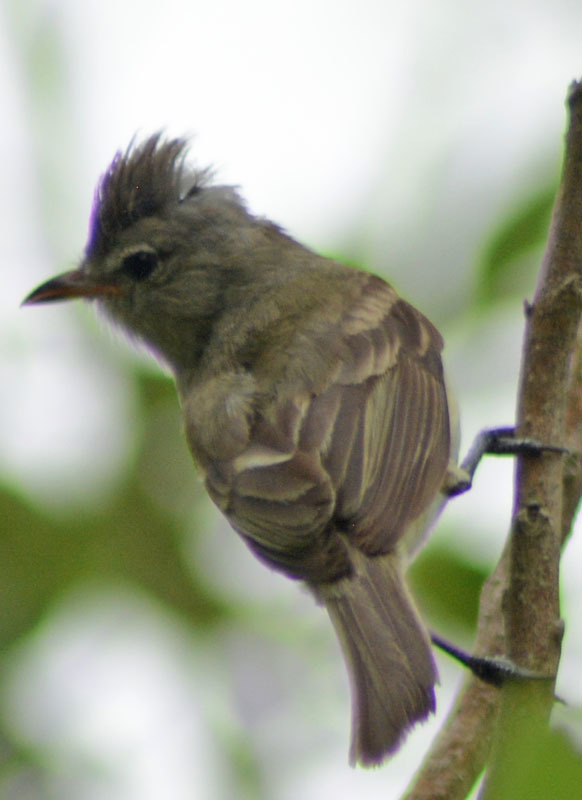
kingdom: Animalia
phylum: Chordata
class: Aves
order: Passeriformes
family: Tyrannidae
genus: Camptostoma
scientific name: Camptostoma imberbe
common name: Northern beardless-tyrannulet
